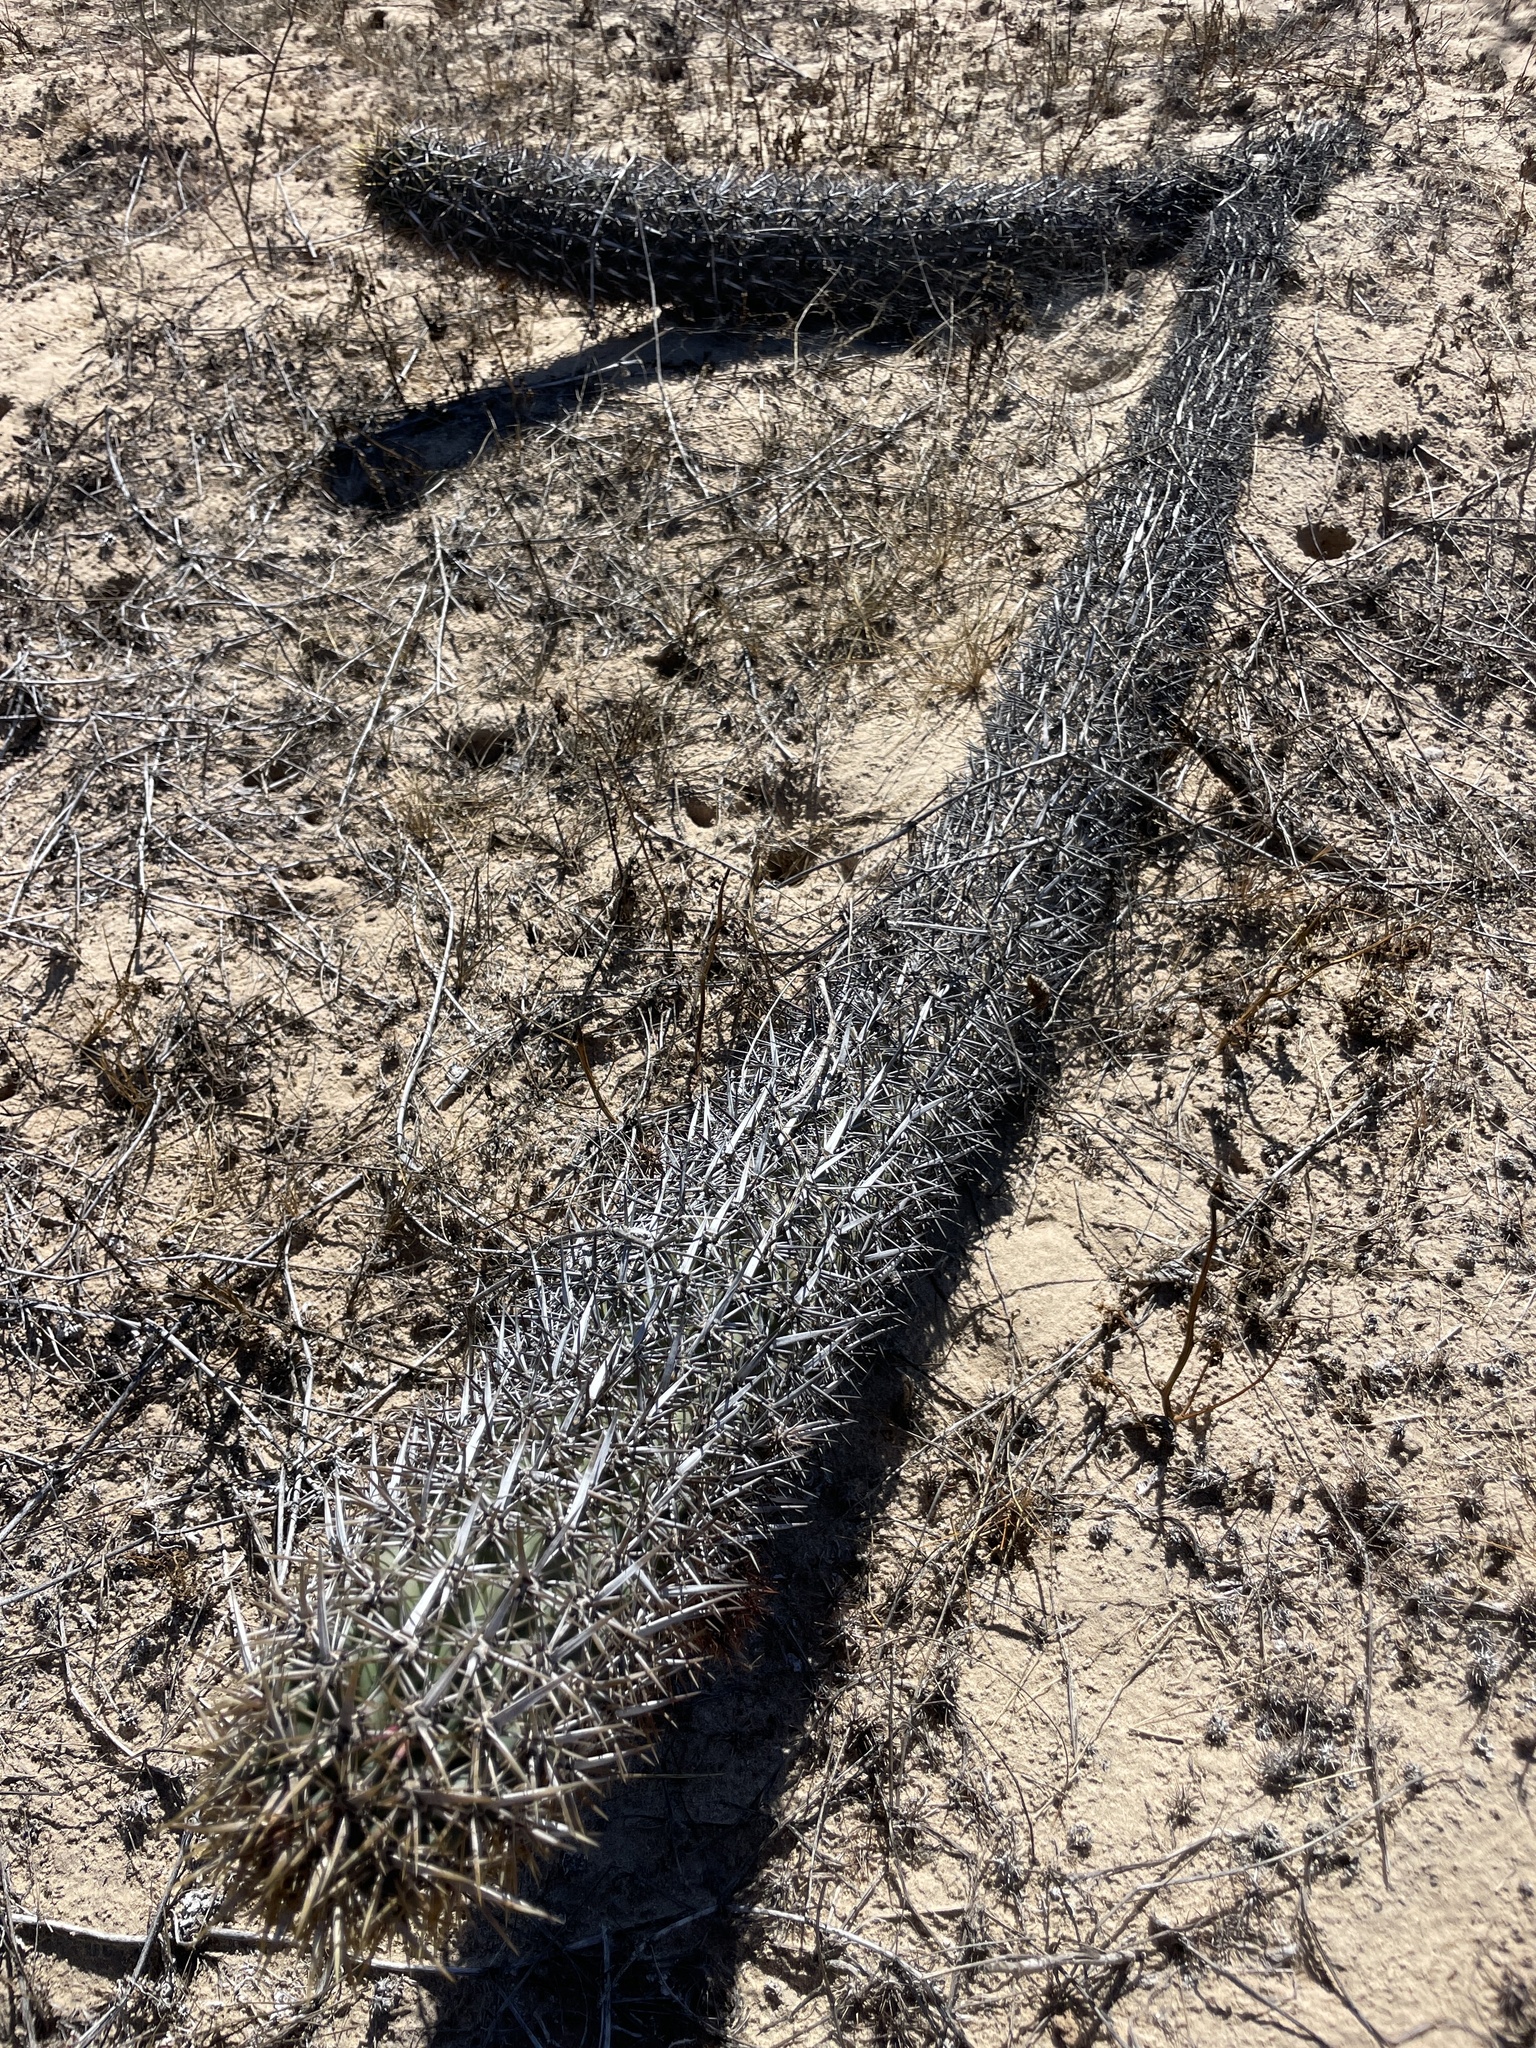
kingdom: Plantae
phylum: Tracheophyta
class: Magnoliopsida
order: Caryophyllales
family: Cactaceae
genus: Stenocereus
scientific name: Stenocereus eruca
